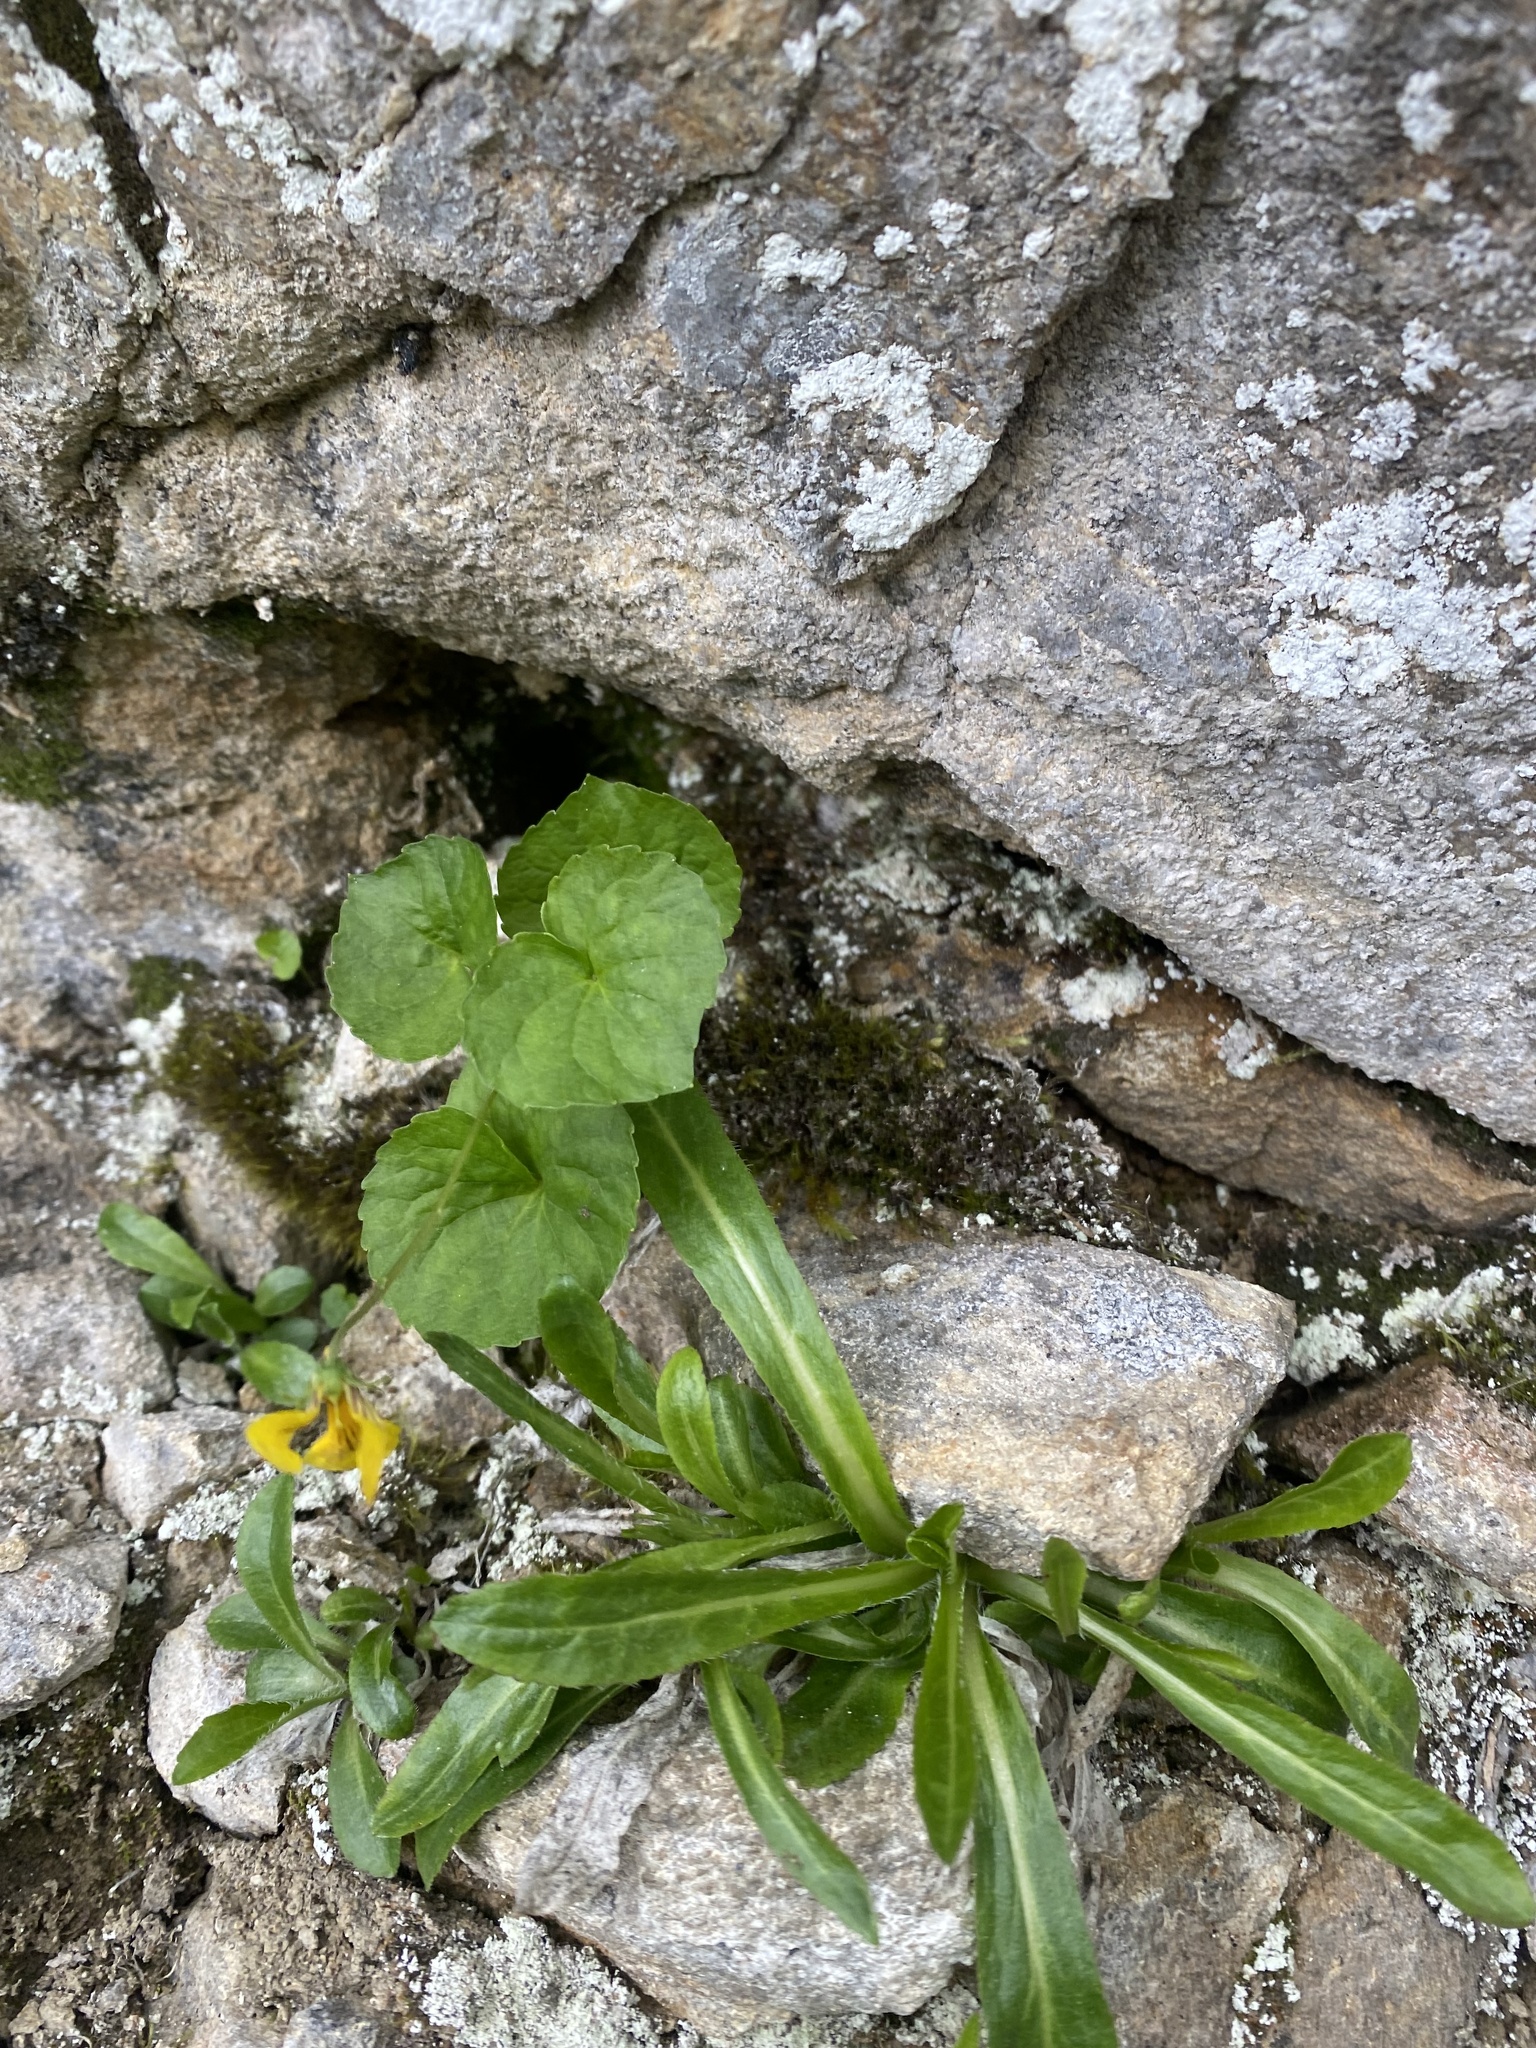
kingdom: Plantae
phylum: Tracheophyta
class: Magnoliopsida
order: Malpighiales
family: Violaceae
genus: Viola
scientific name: Viola caucasica
